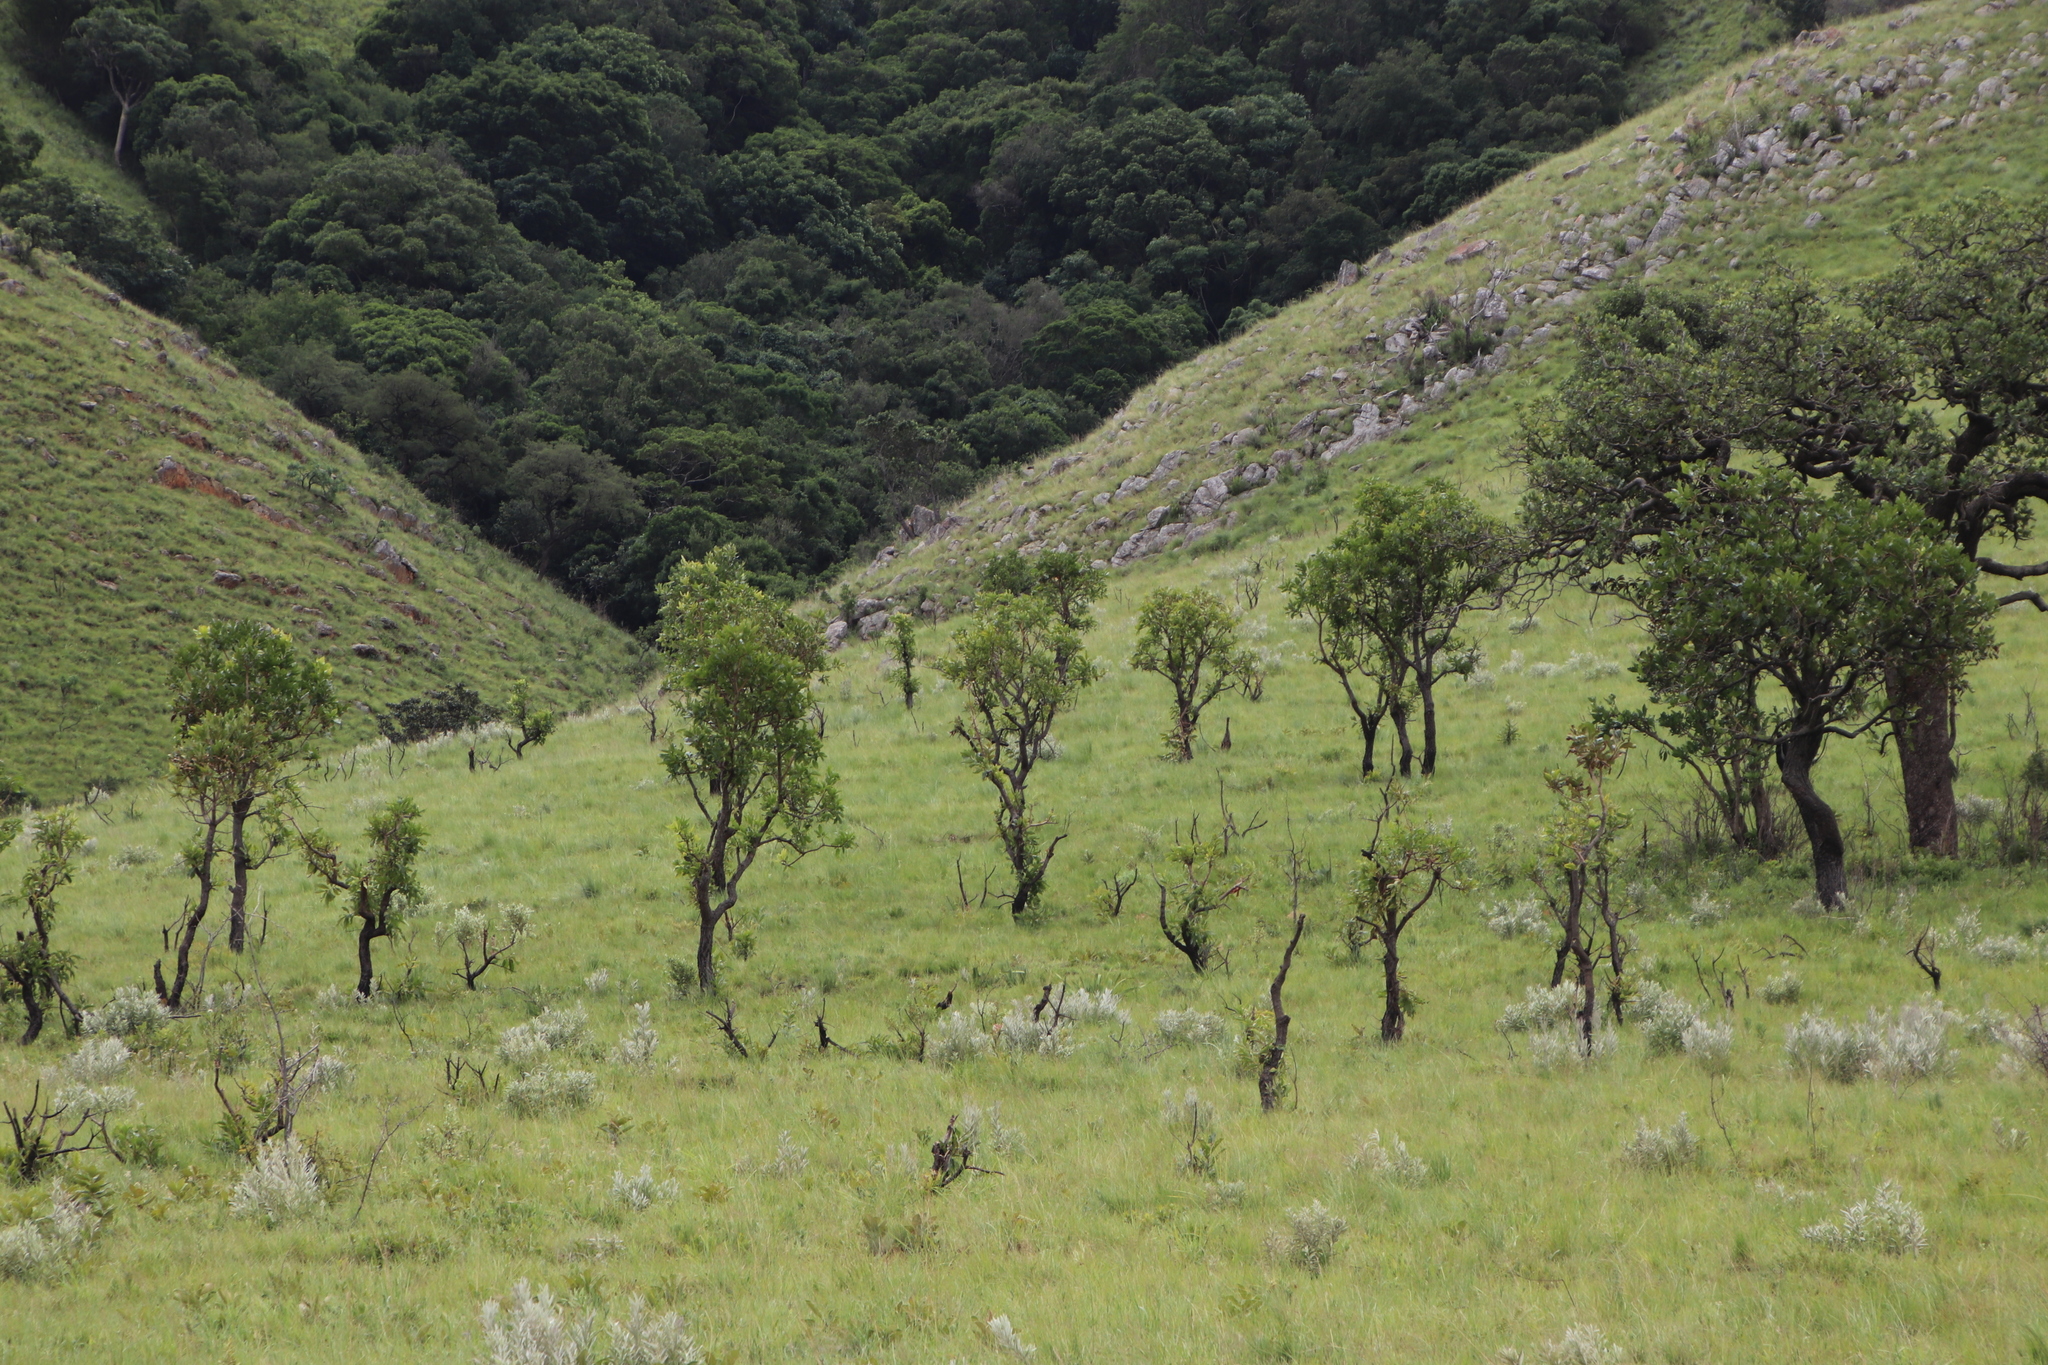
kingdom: Plantae
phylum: Tracheophyta
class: Magnoliopsida
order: Proteales
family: Proteaceae
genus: Faurea
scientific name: Faurea rochetiana
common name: Broad-leaved beech
